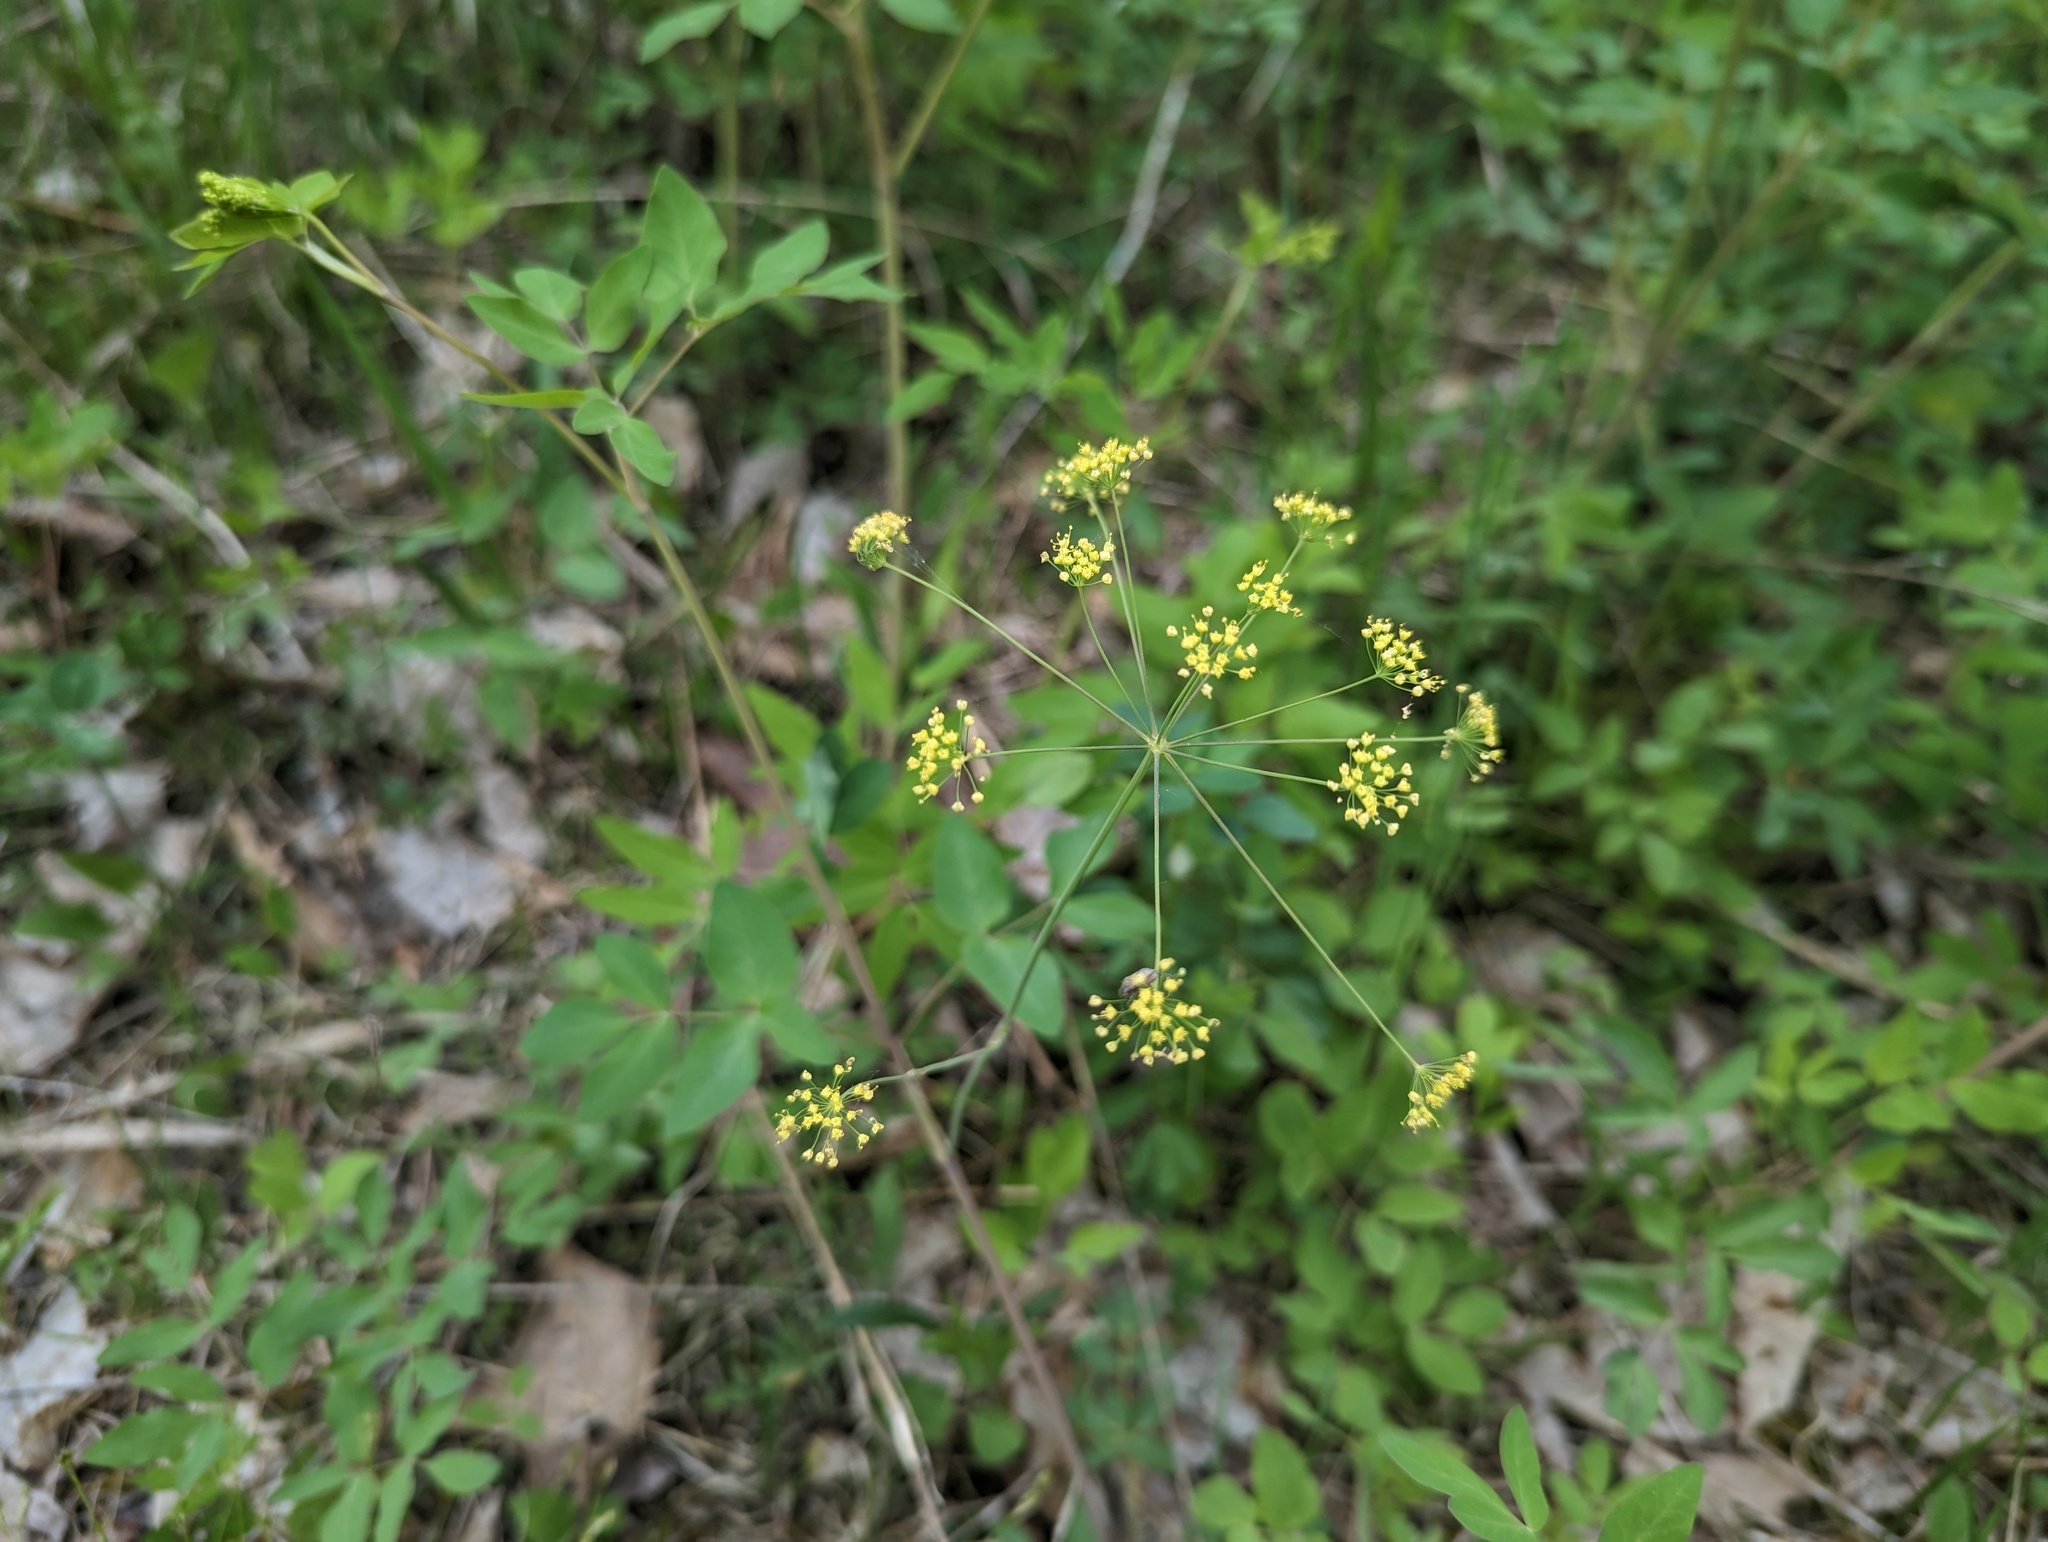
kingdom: Plantae
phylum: Tracheophyta
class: Magnoliopsida
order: Apiales
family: Apiaceae
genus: Taenidia
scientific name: Taenidia integerrima
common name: Golden alexander
